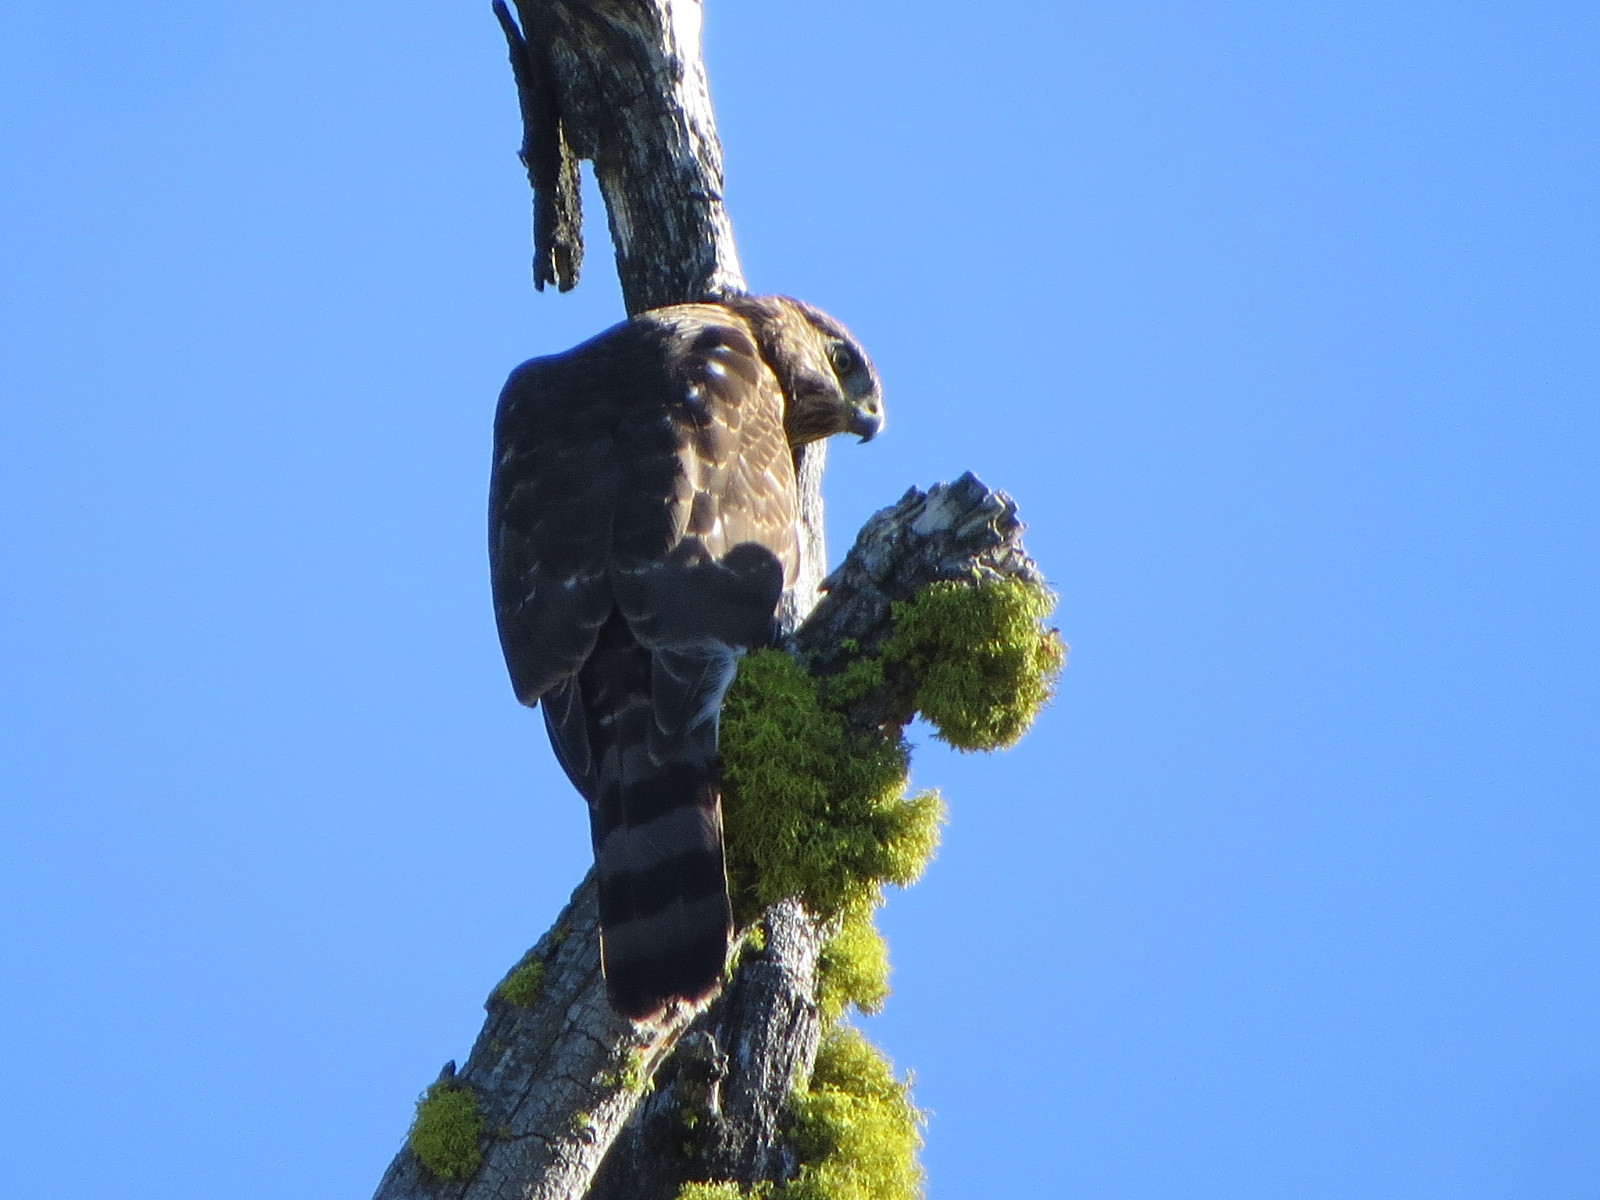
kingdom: Animalia
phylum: Chordata
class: Aves
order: Accipitriformes
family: Accipitridae
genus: Accipiter
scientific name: Accipiter cooperii
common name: Cooper's hawk
